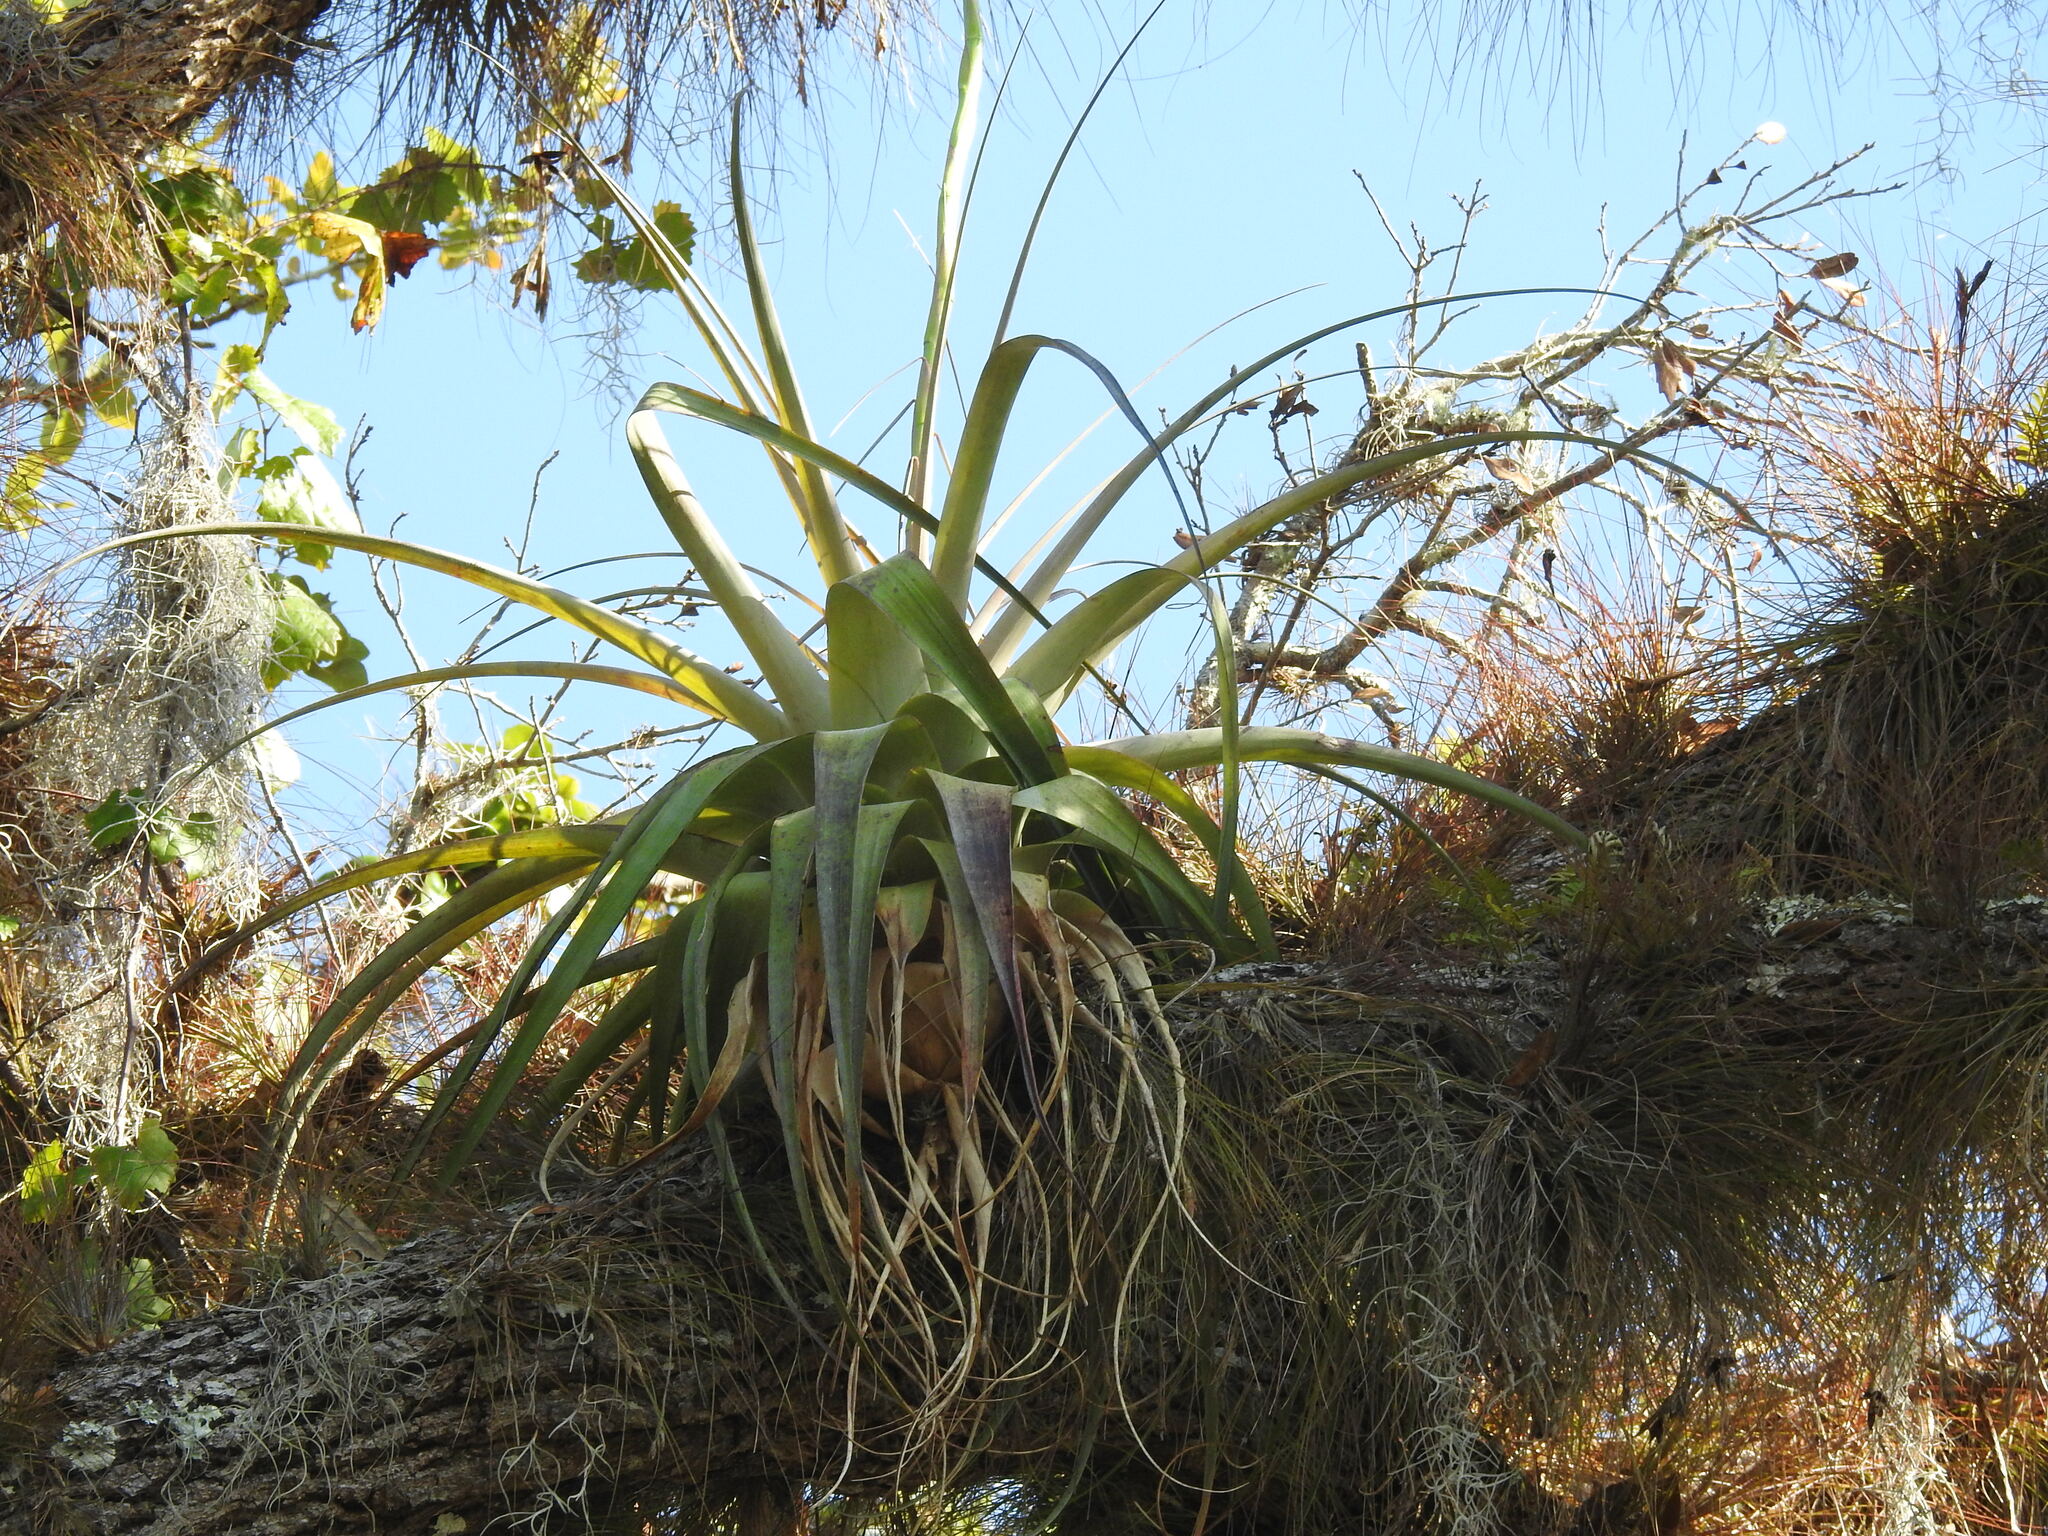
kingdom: Plantae
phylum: Tracheophyta
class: Liliopsida
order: Poales
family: Bromeliaceae
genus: Tillandsia
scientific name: Tillandsia utriculata
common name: Wild pine
